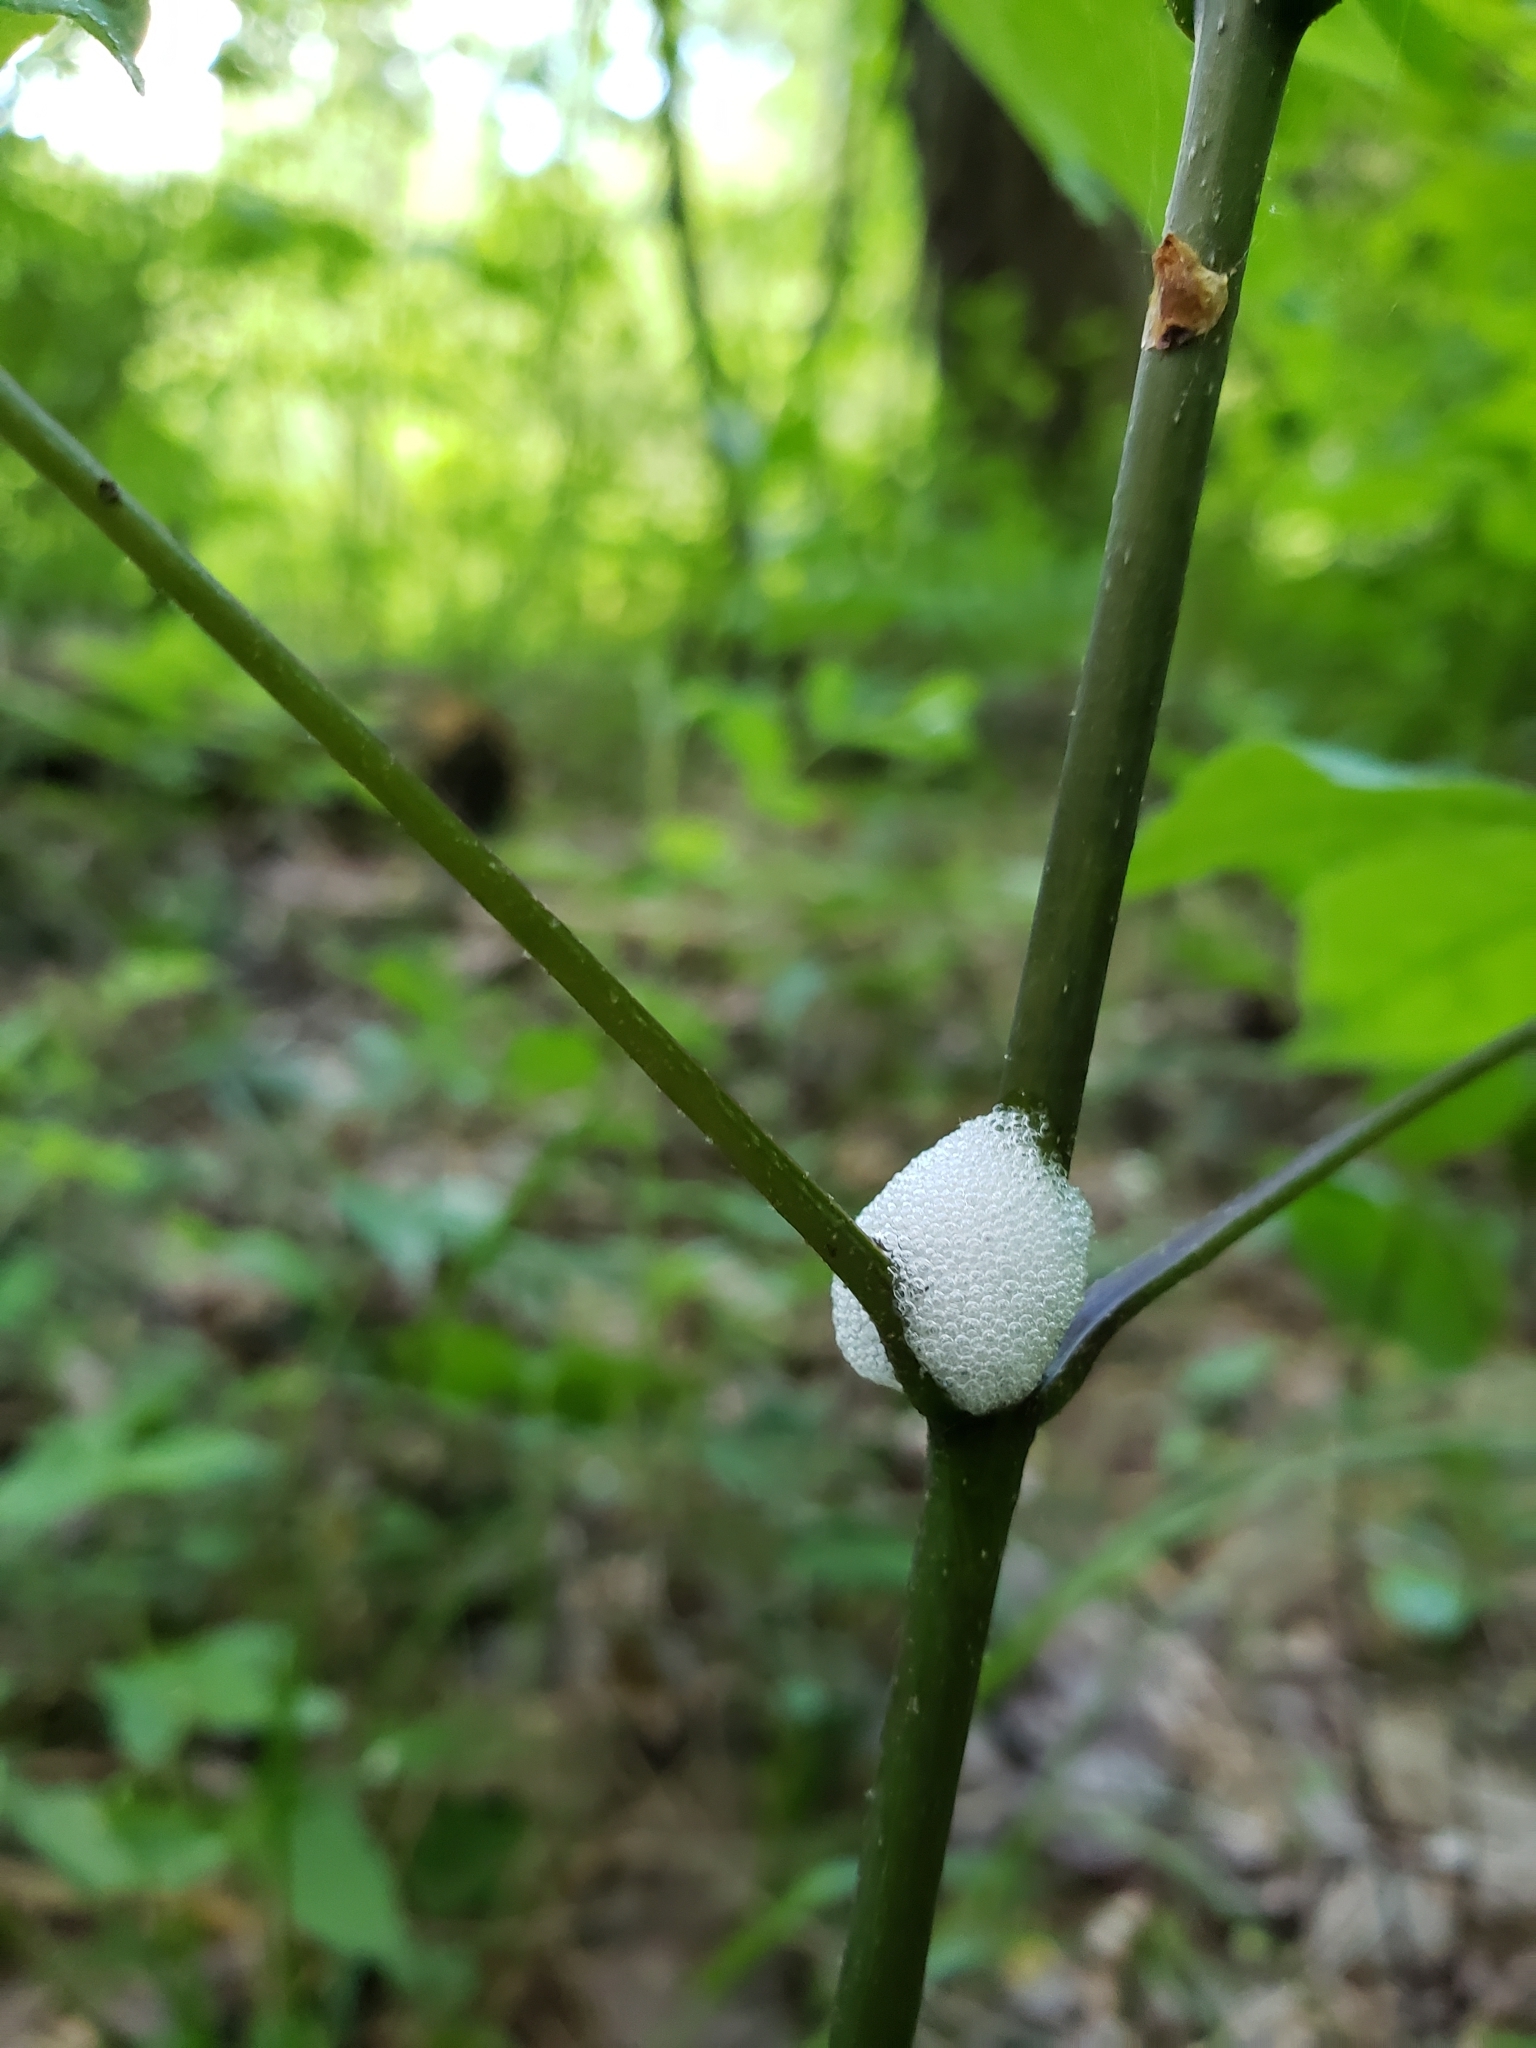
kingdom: Animalia
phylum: Arthropoda
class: Insecta
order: Hemiptera
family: Aphrophoridae
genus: Philaenus
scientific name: Philaenus spumarius
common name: Meadow spittlebug
